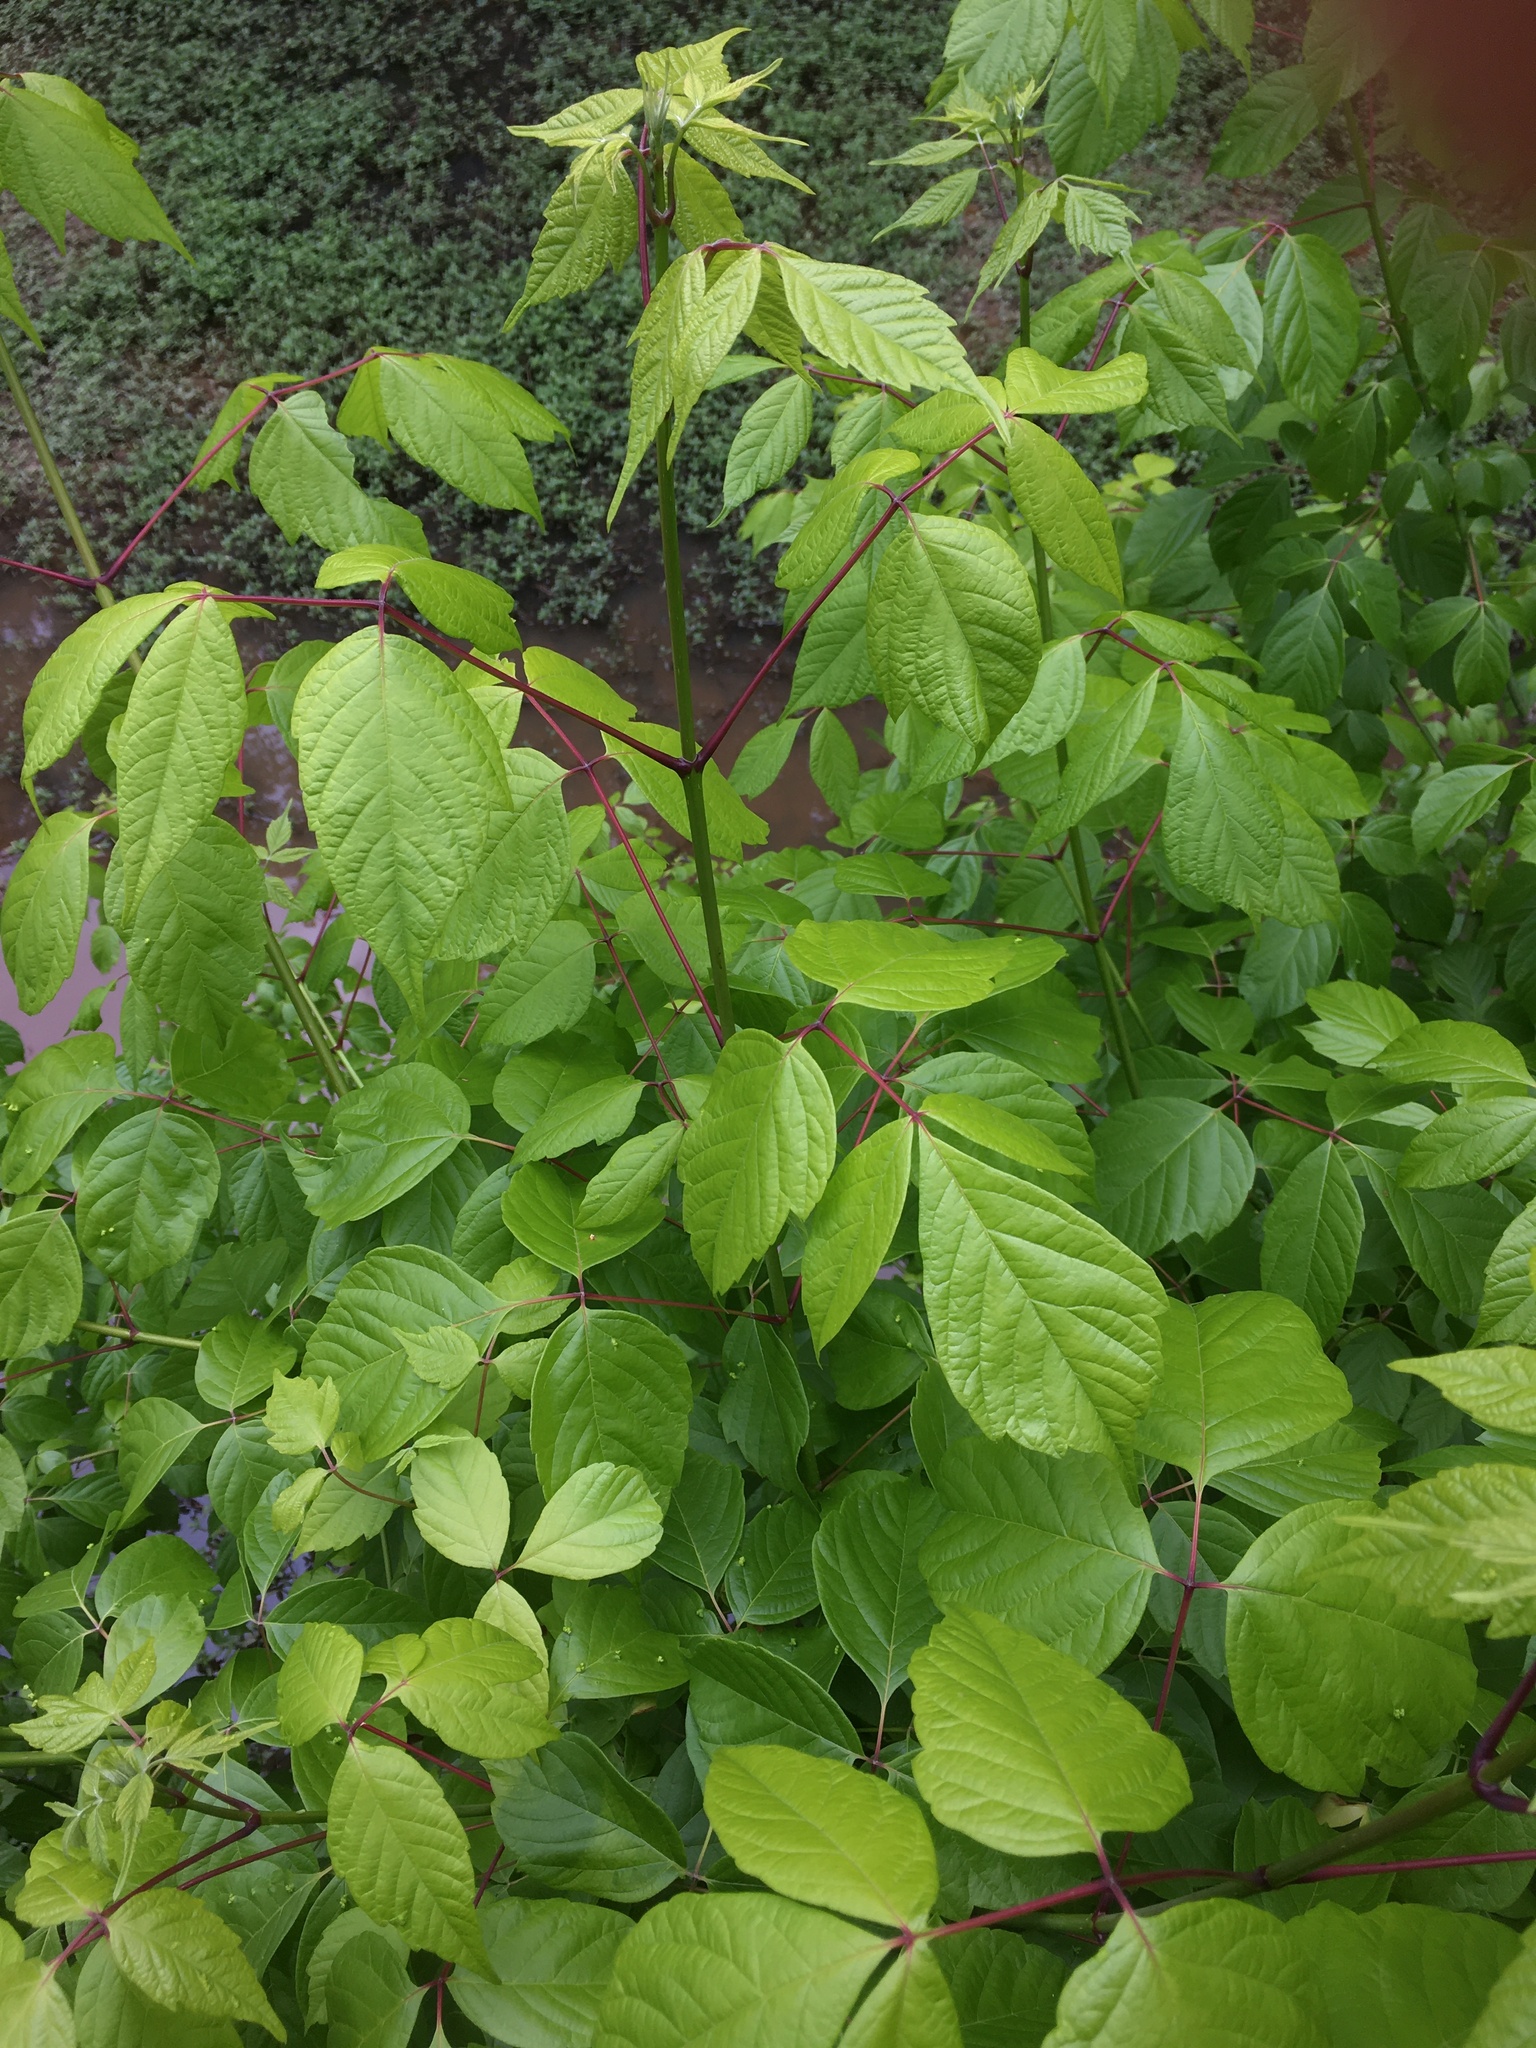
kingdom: Plantae
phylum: Tracheophyta
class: Magnoliopsida
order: Sapindales
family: Sapindaceae
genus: Acer
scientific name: Acer negundo
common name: Ashleaf maple
